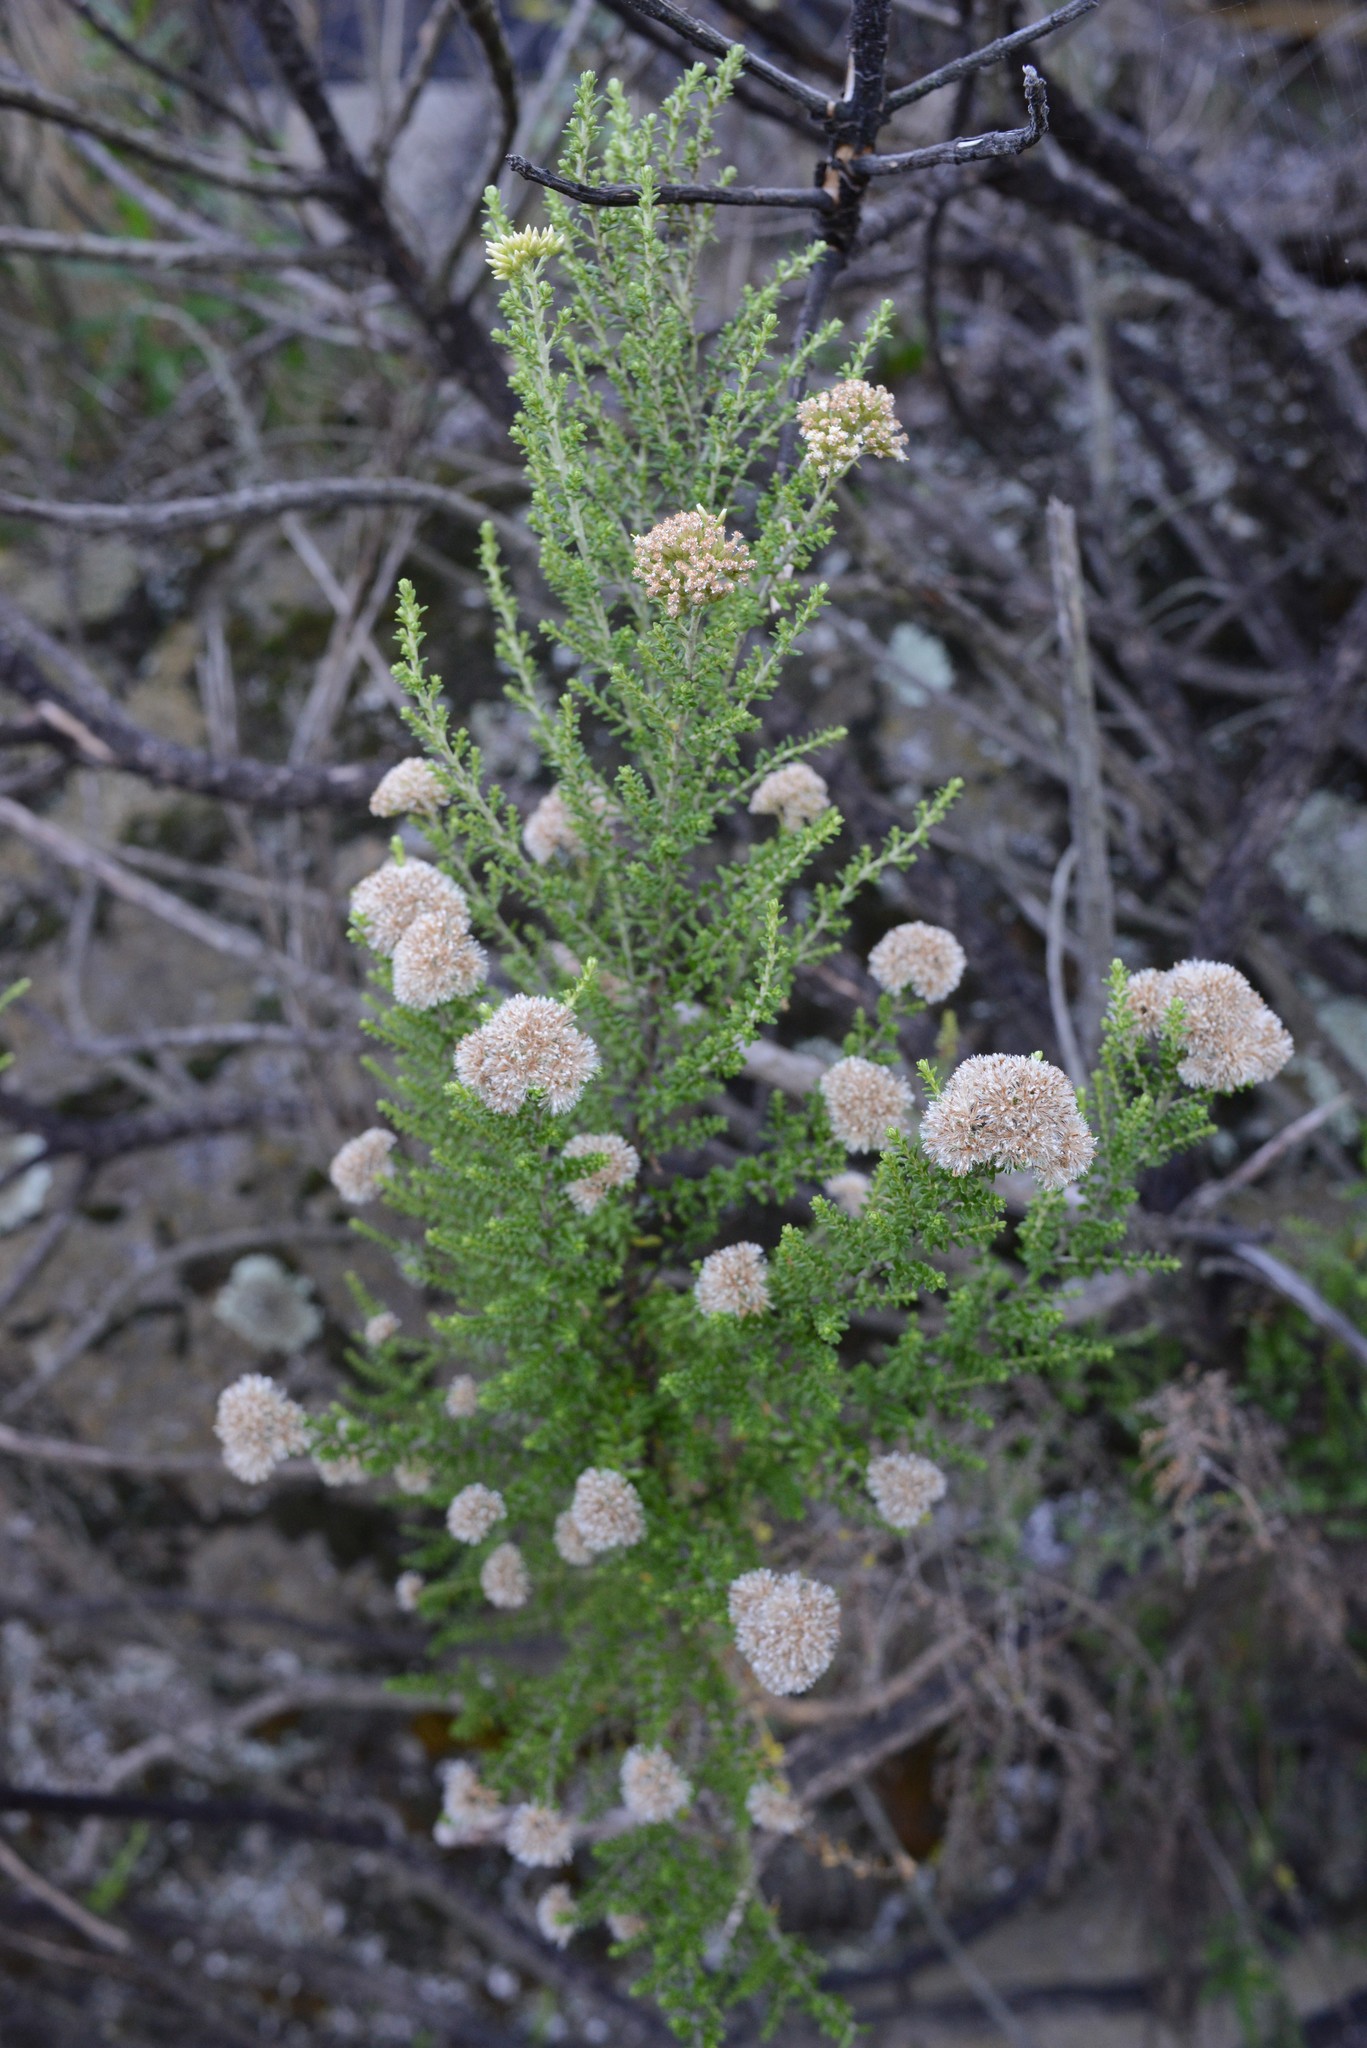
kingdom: Plantae
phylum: Tracheophyta
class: Magnoliopsida
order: Asterales
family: Asteraceae
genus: Ozothamnus
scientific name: Ozothamnus leptophyllus
